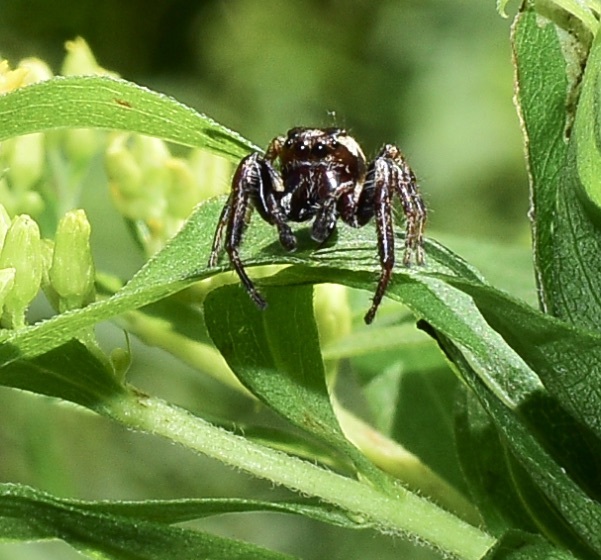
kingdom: Animalia
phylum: Arthropoda
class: Arachnida
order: Araneae
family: Salticidae
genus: Eris
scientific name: Eris militaris
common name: Bronze jumper
